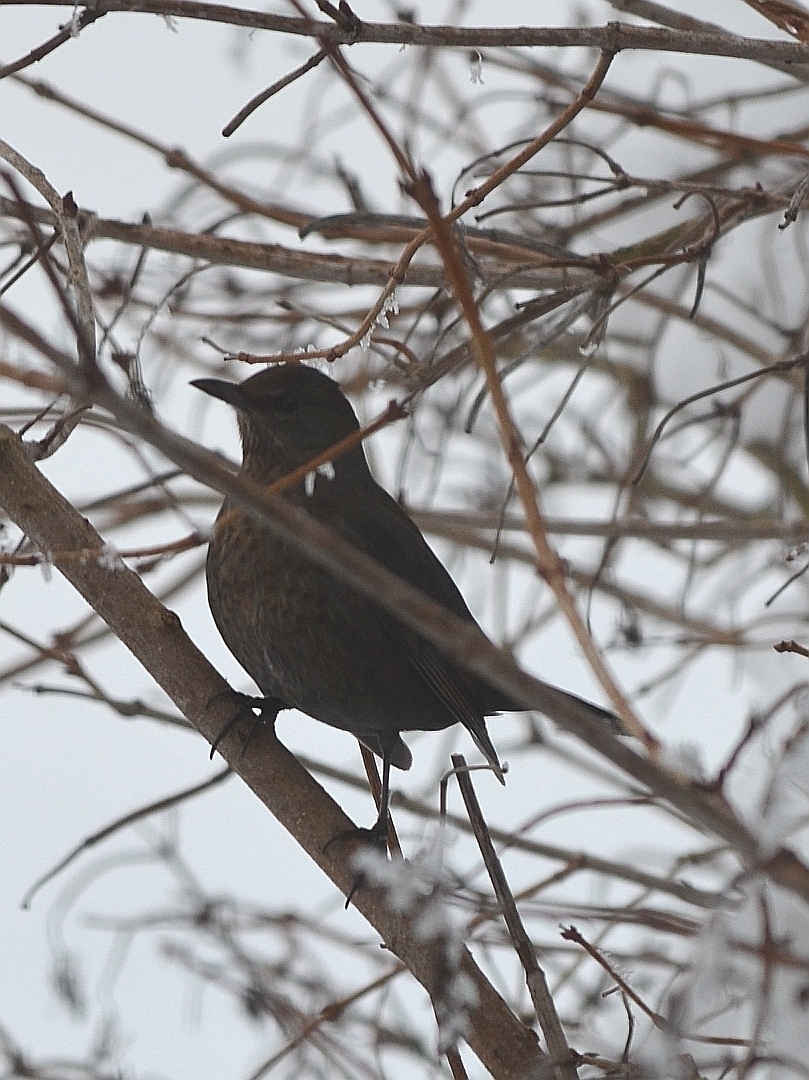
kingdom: Animalia
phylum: Chordata
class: Aves
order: Passeriformes
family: Turdidae
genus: Turdus
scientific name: Turdus merula
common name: Common blackbird
